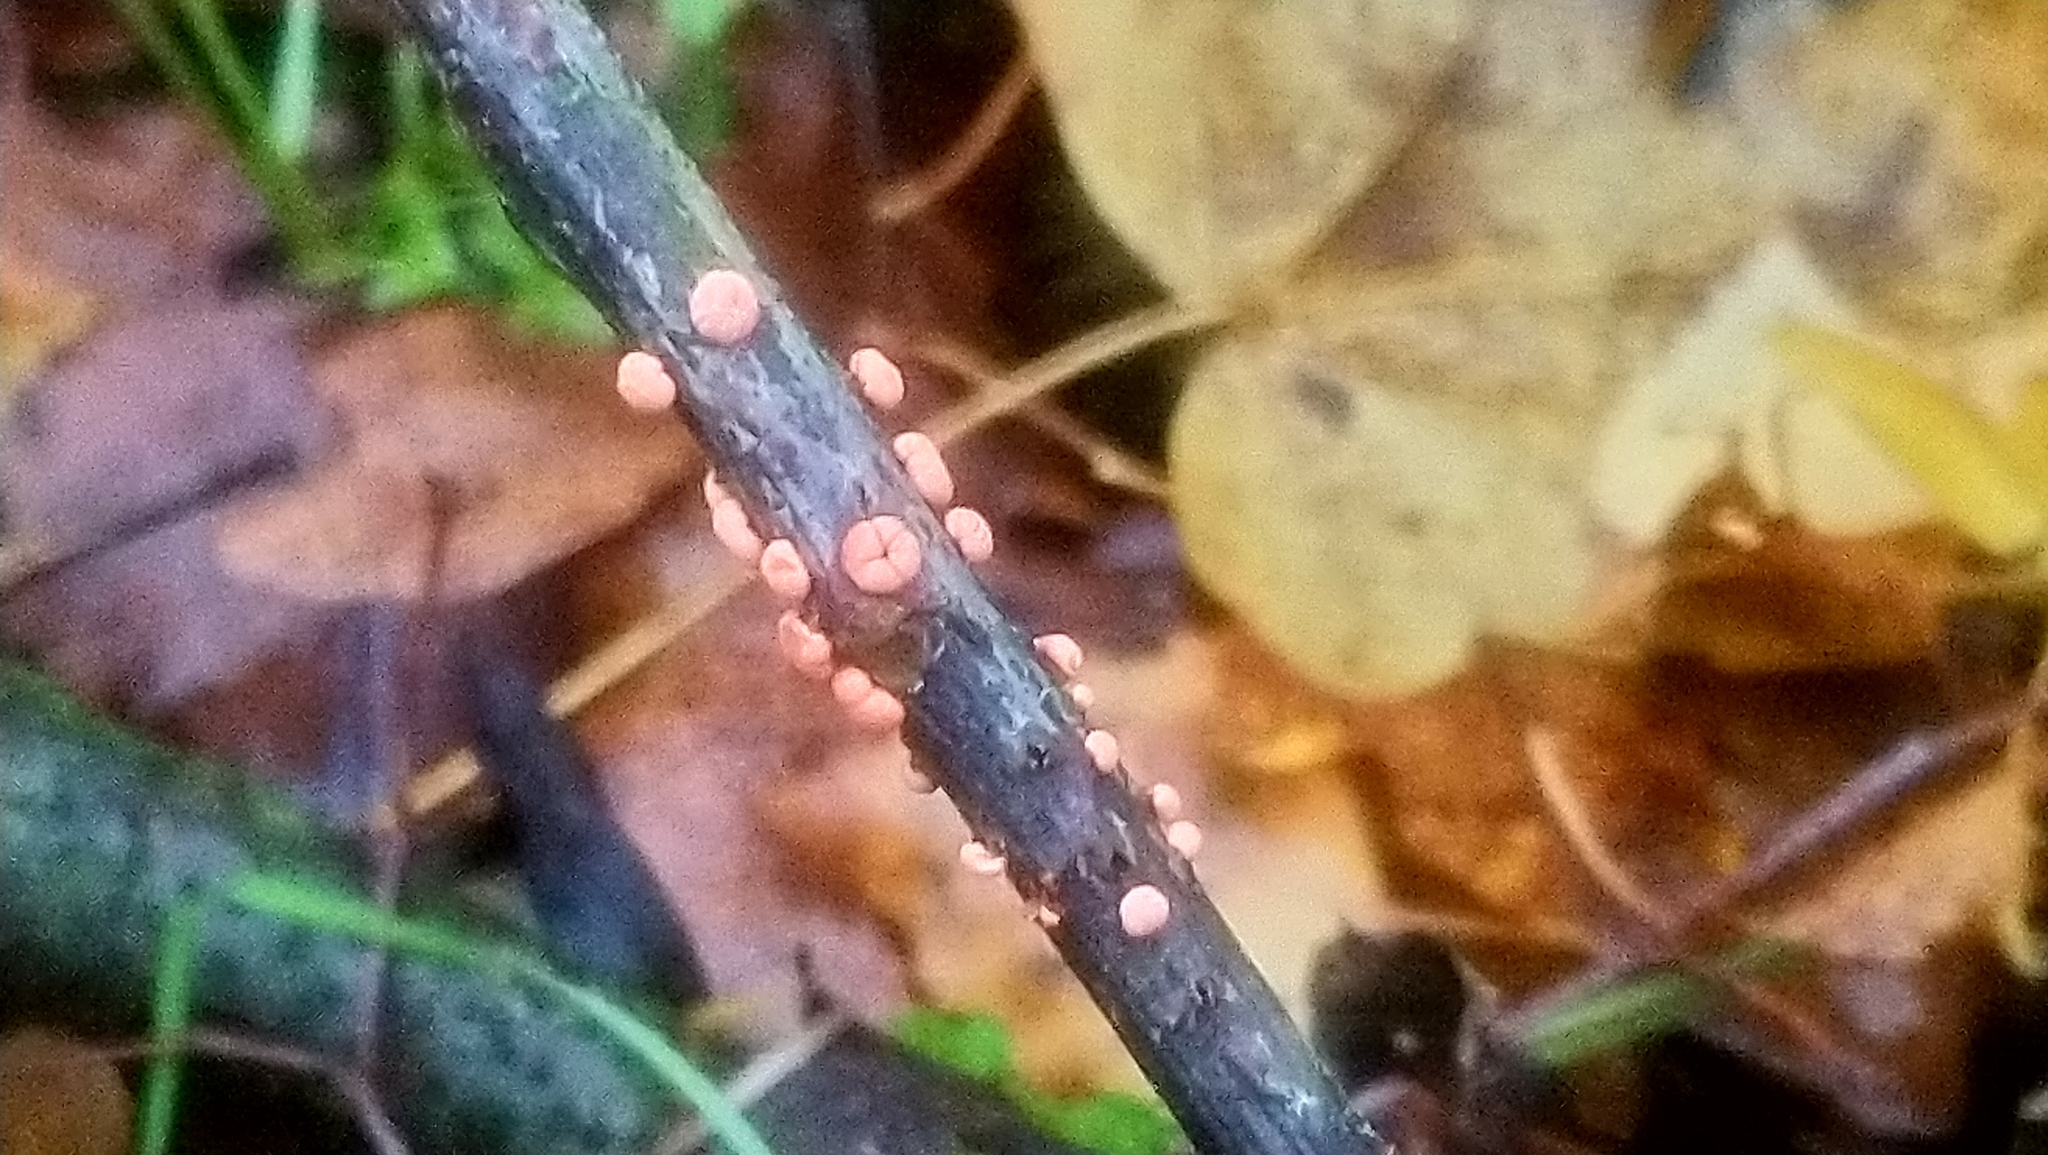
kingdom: Fungi
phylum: Ascomycota
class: Sordariomycetes
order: Hypocreales
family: Nectriaceae
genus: Nectria
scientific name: Nectria cinnabarina
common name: Coral spot
